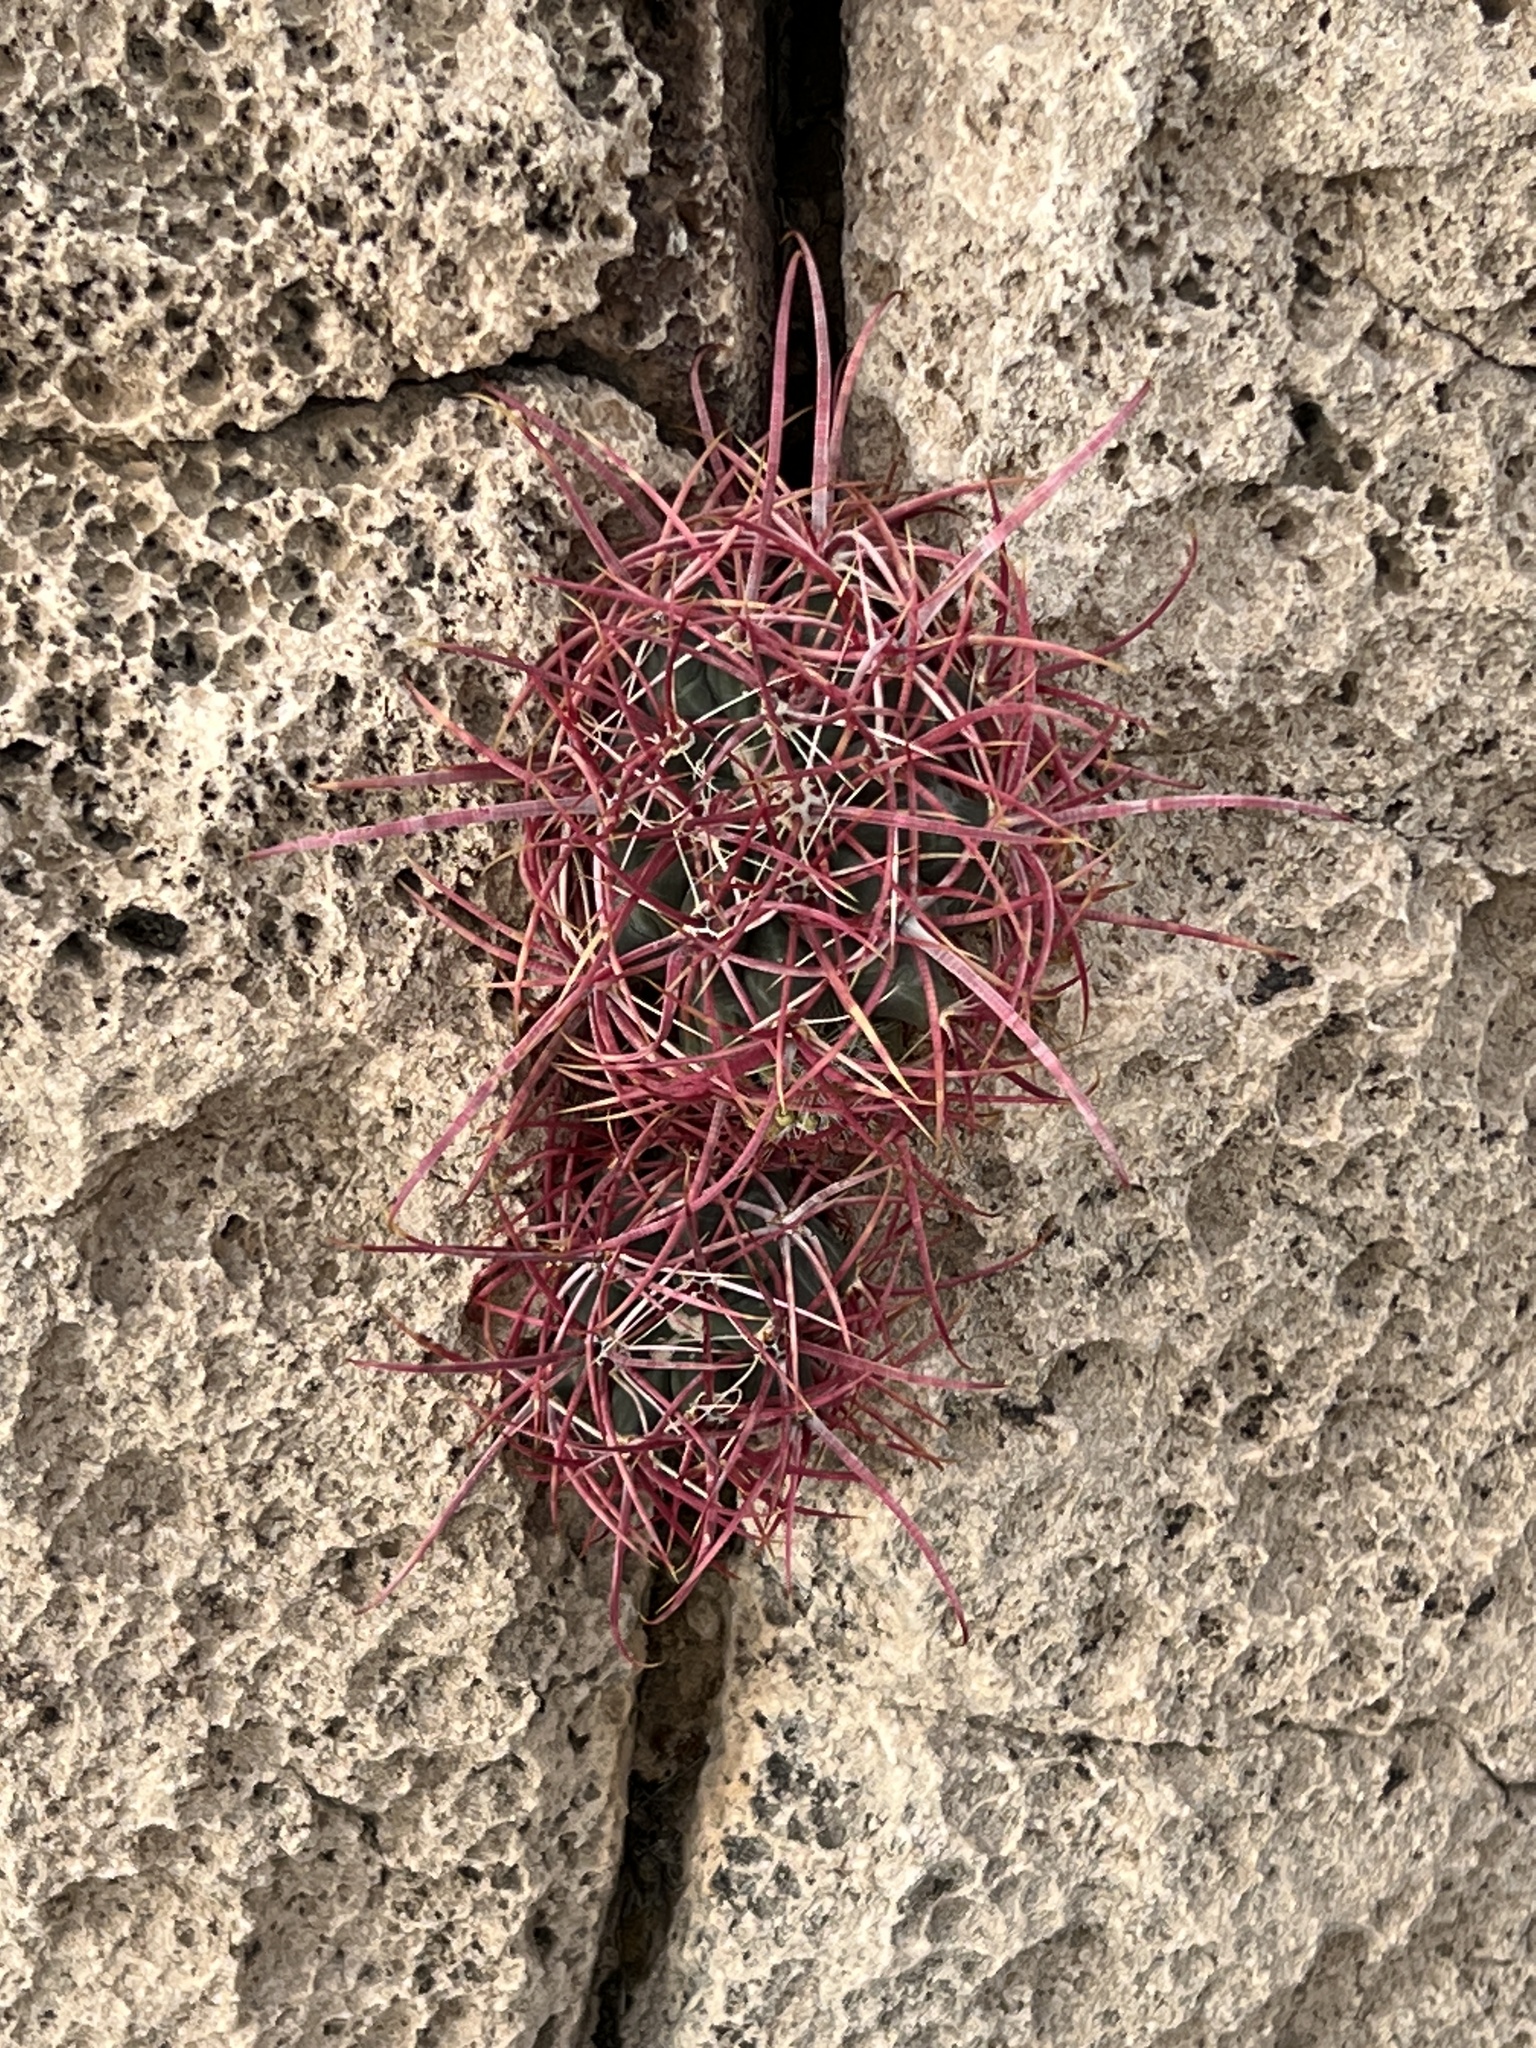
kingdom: Plantae
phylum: Tracheophyta
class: Magnoliopsida
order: Caryophyllales
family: Cactaceae
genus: Ferocactus
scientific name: Ferocactus cylindraceus
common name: California barrel cactus
